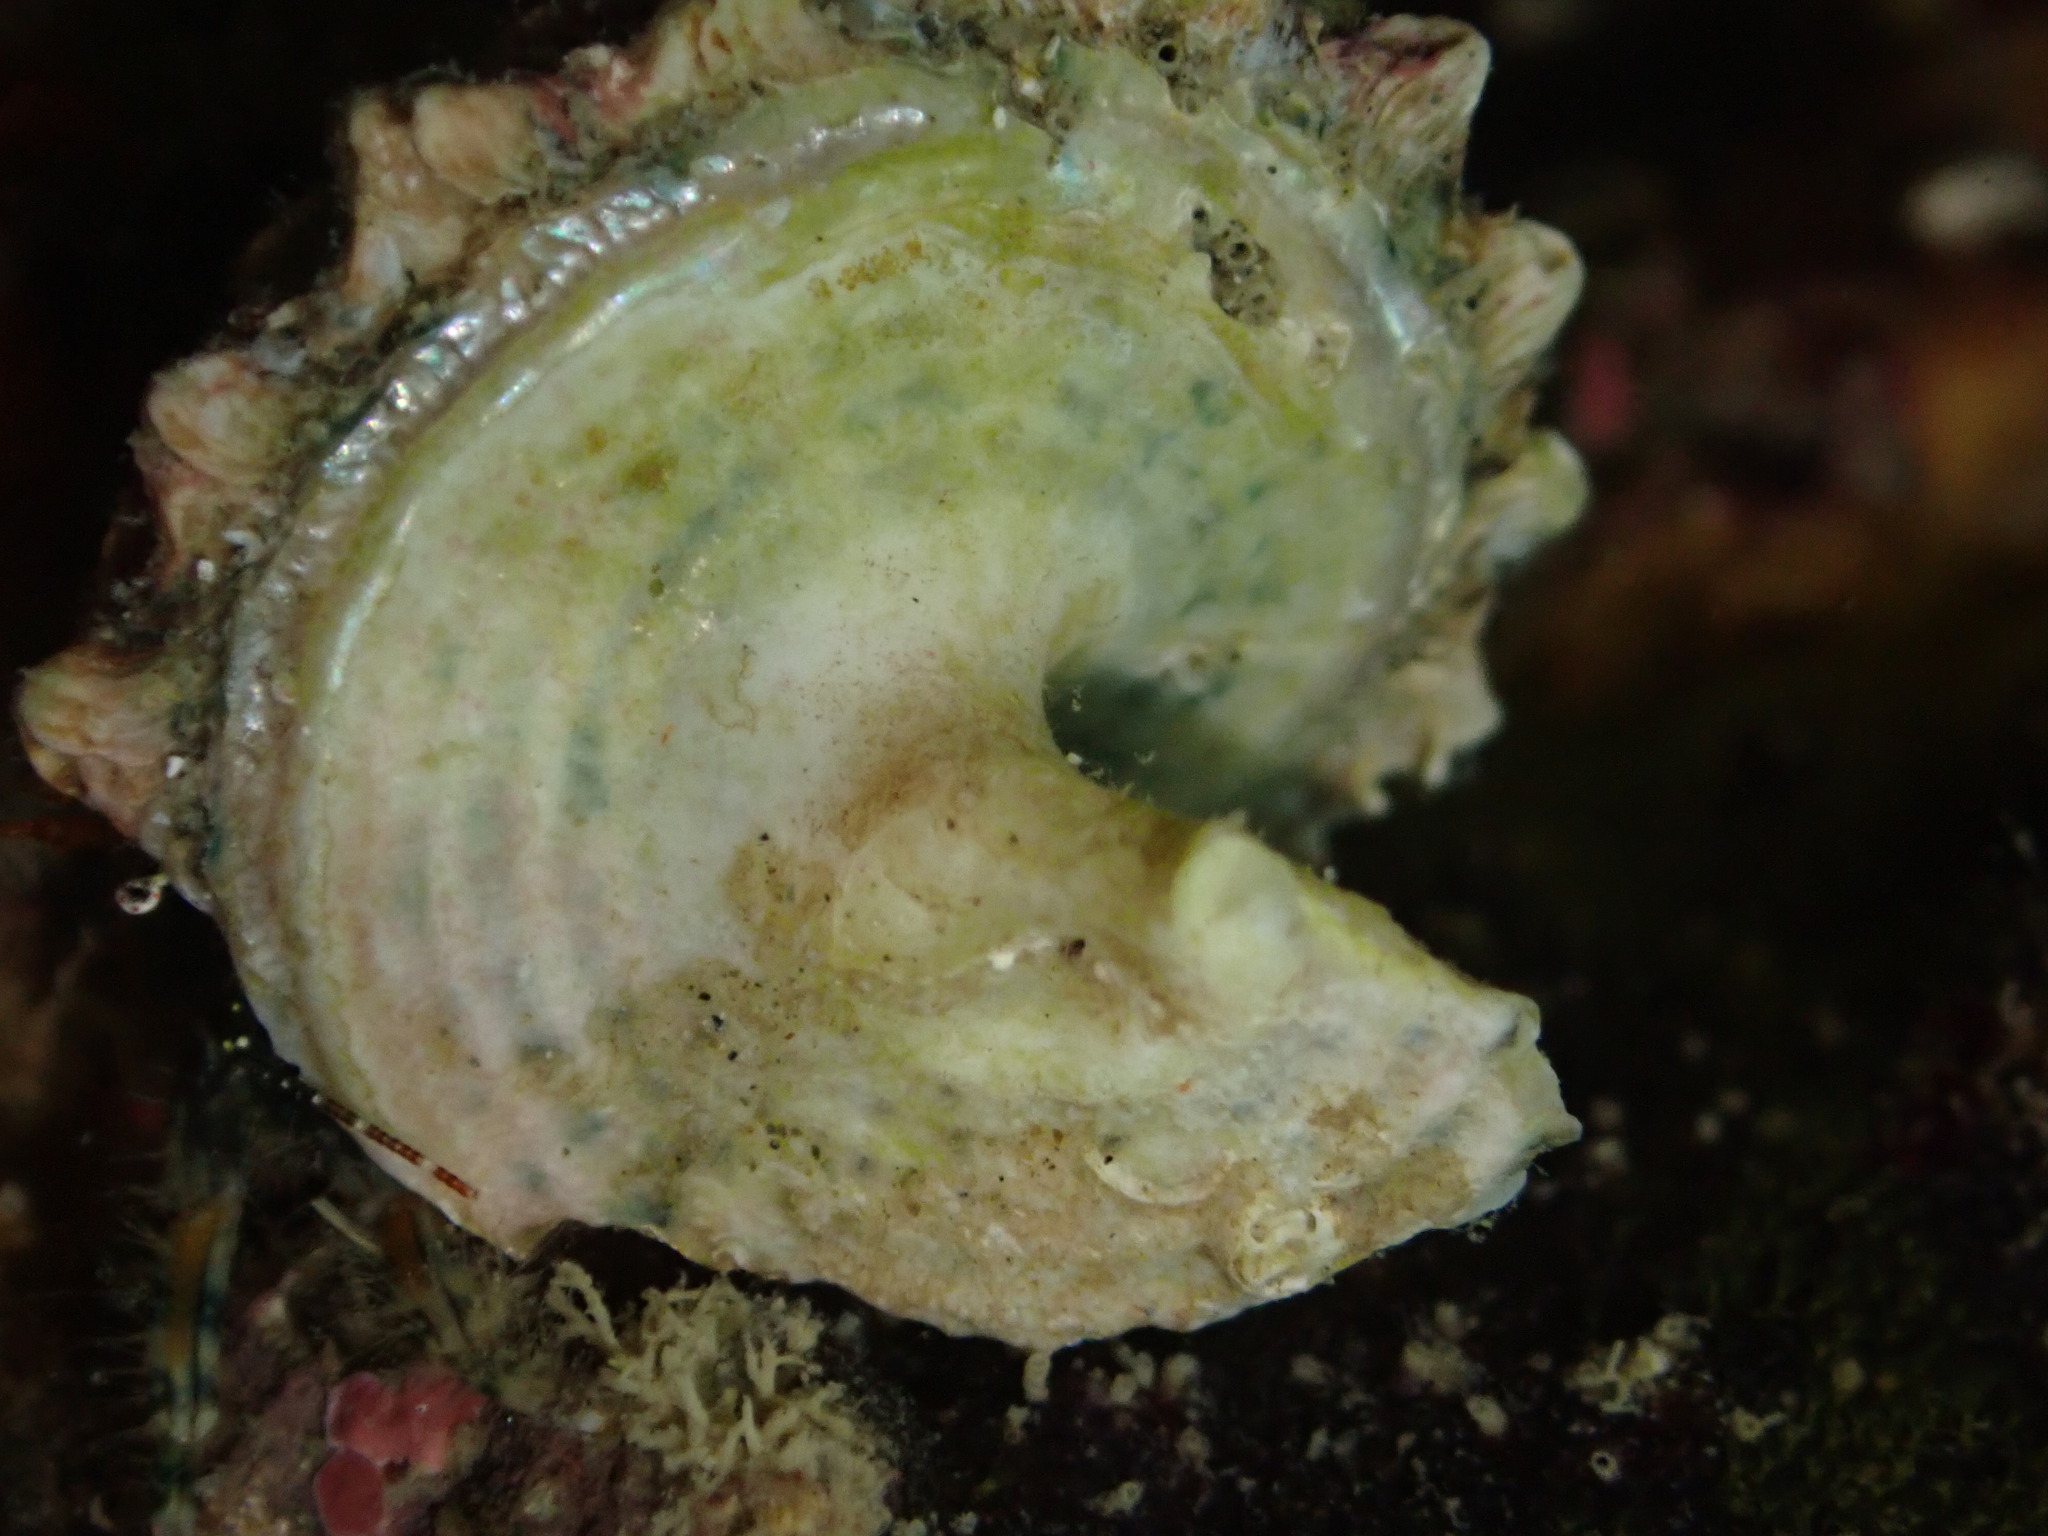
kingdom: Animalia
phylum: Mollusca
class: Gastropoda
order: Trochida
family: Turbinidae
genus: Cookia
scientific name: Cookia sulcata
